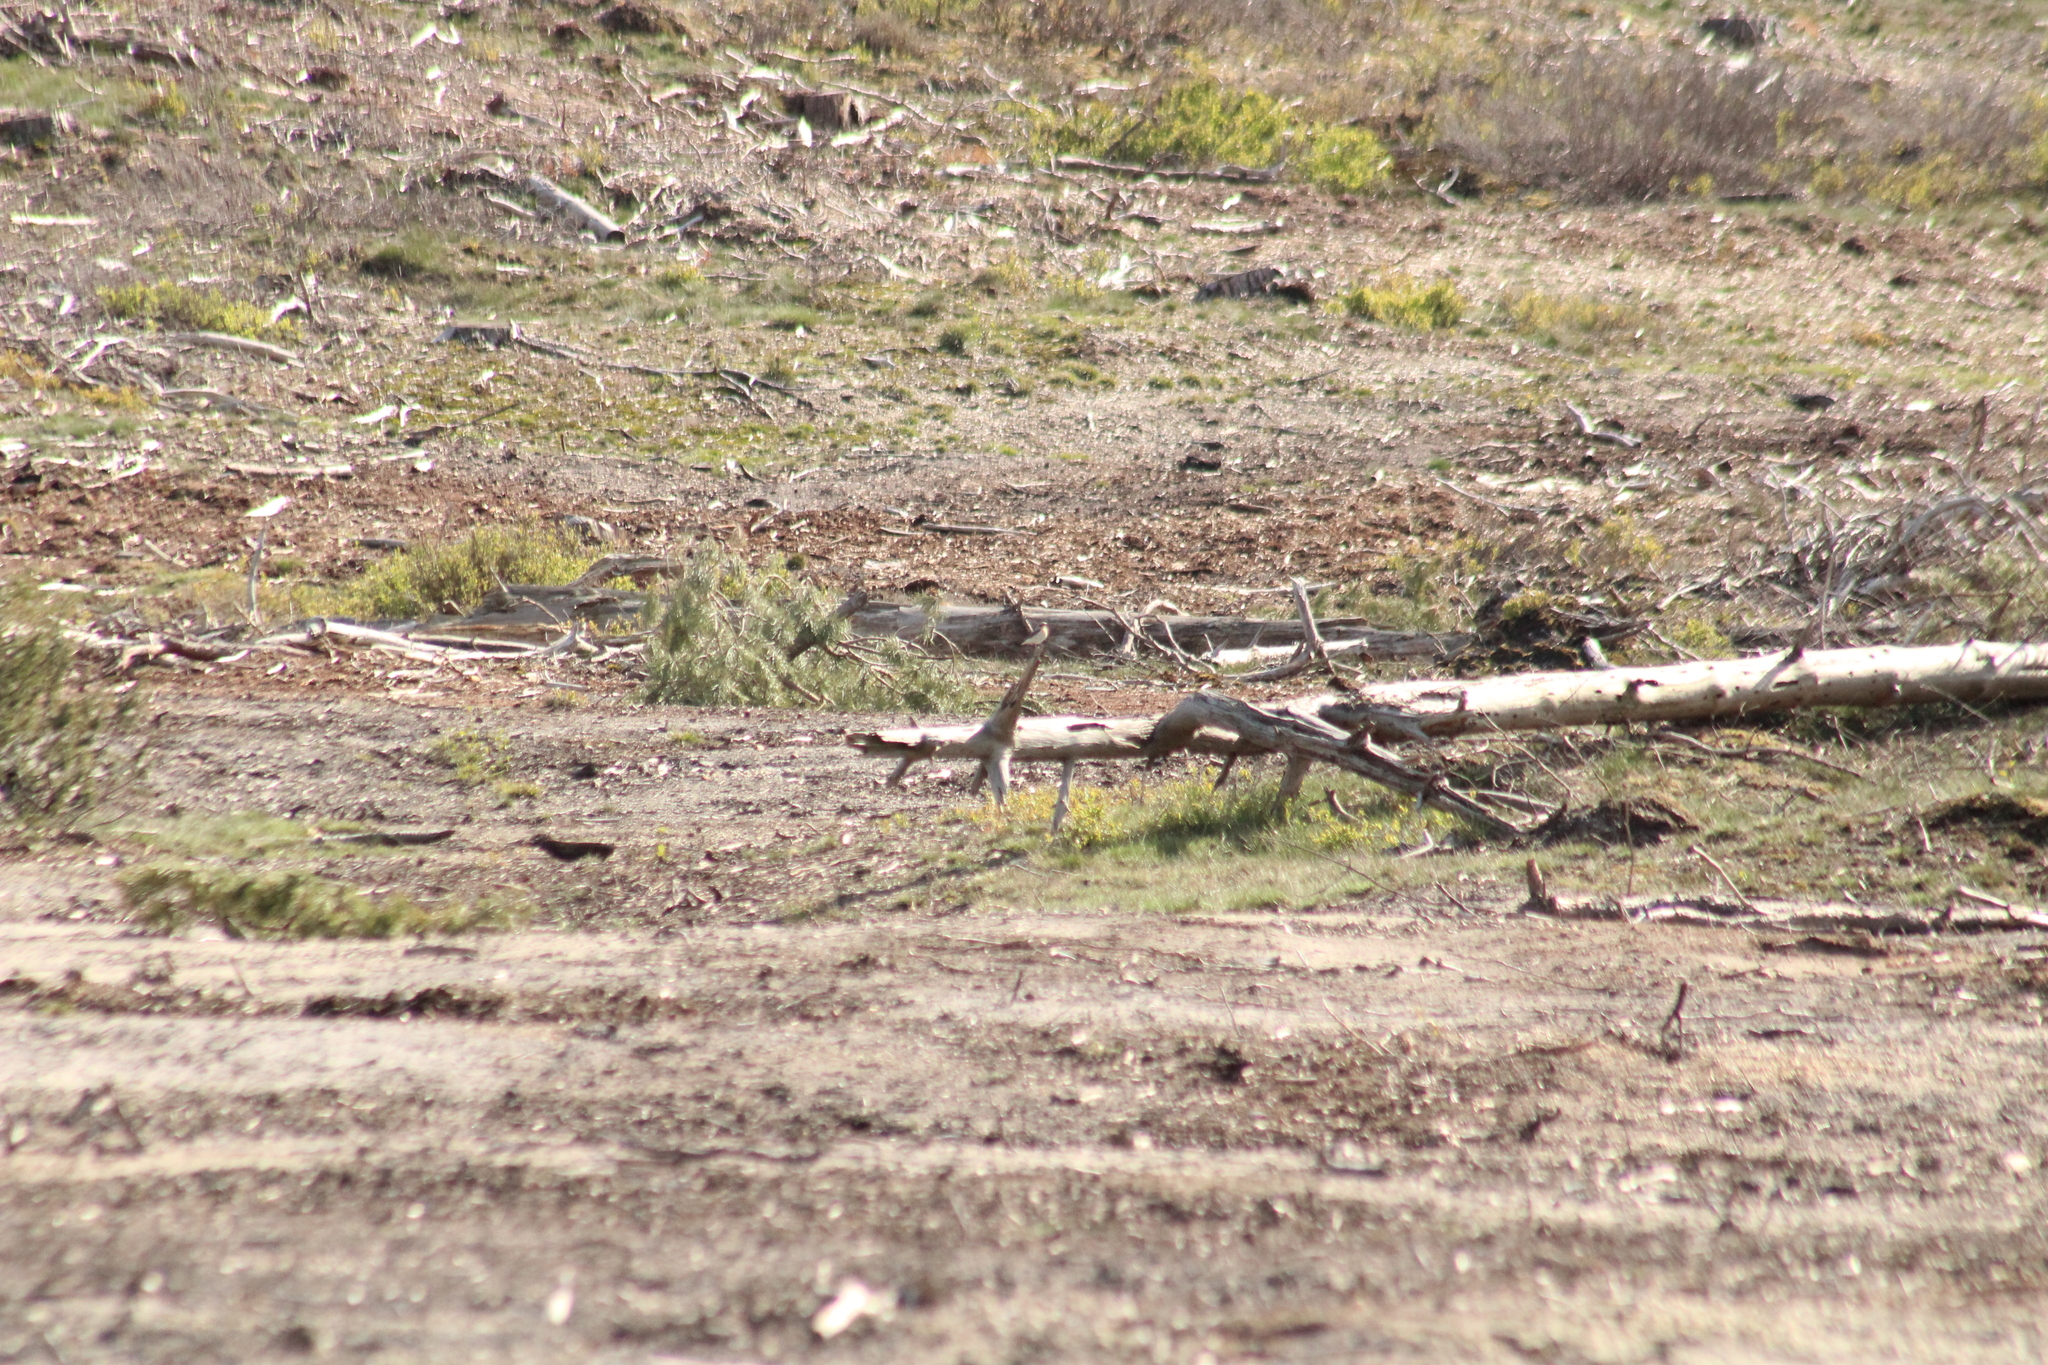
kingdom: Animalia
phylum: Chordata
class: Aves
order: Passeriformes
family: Muscicapidae
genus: Oenanthe
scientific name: Oenanthe oenanthe
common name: Northern wheatear
